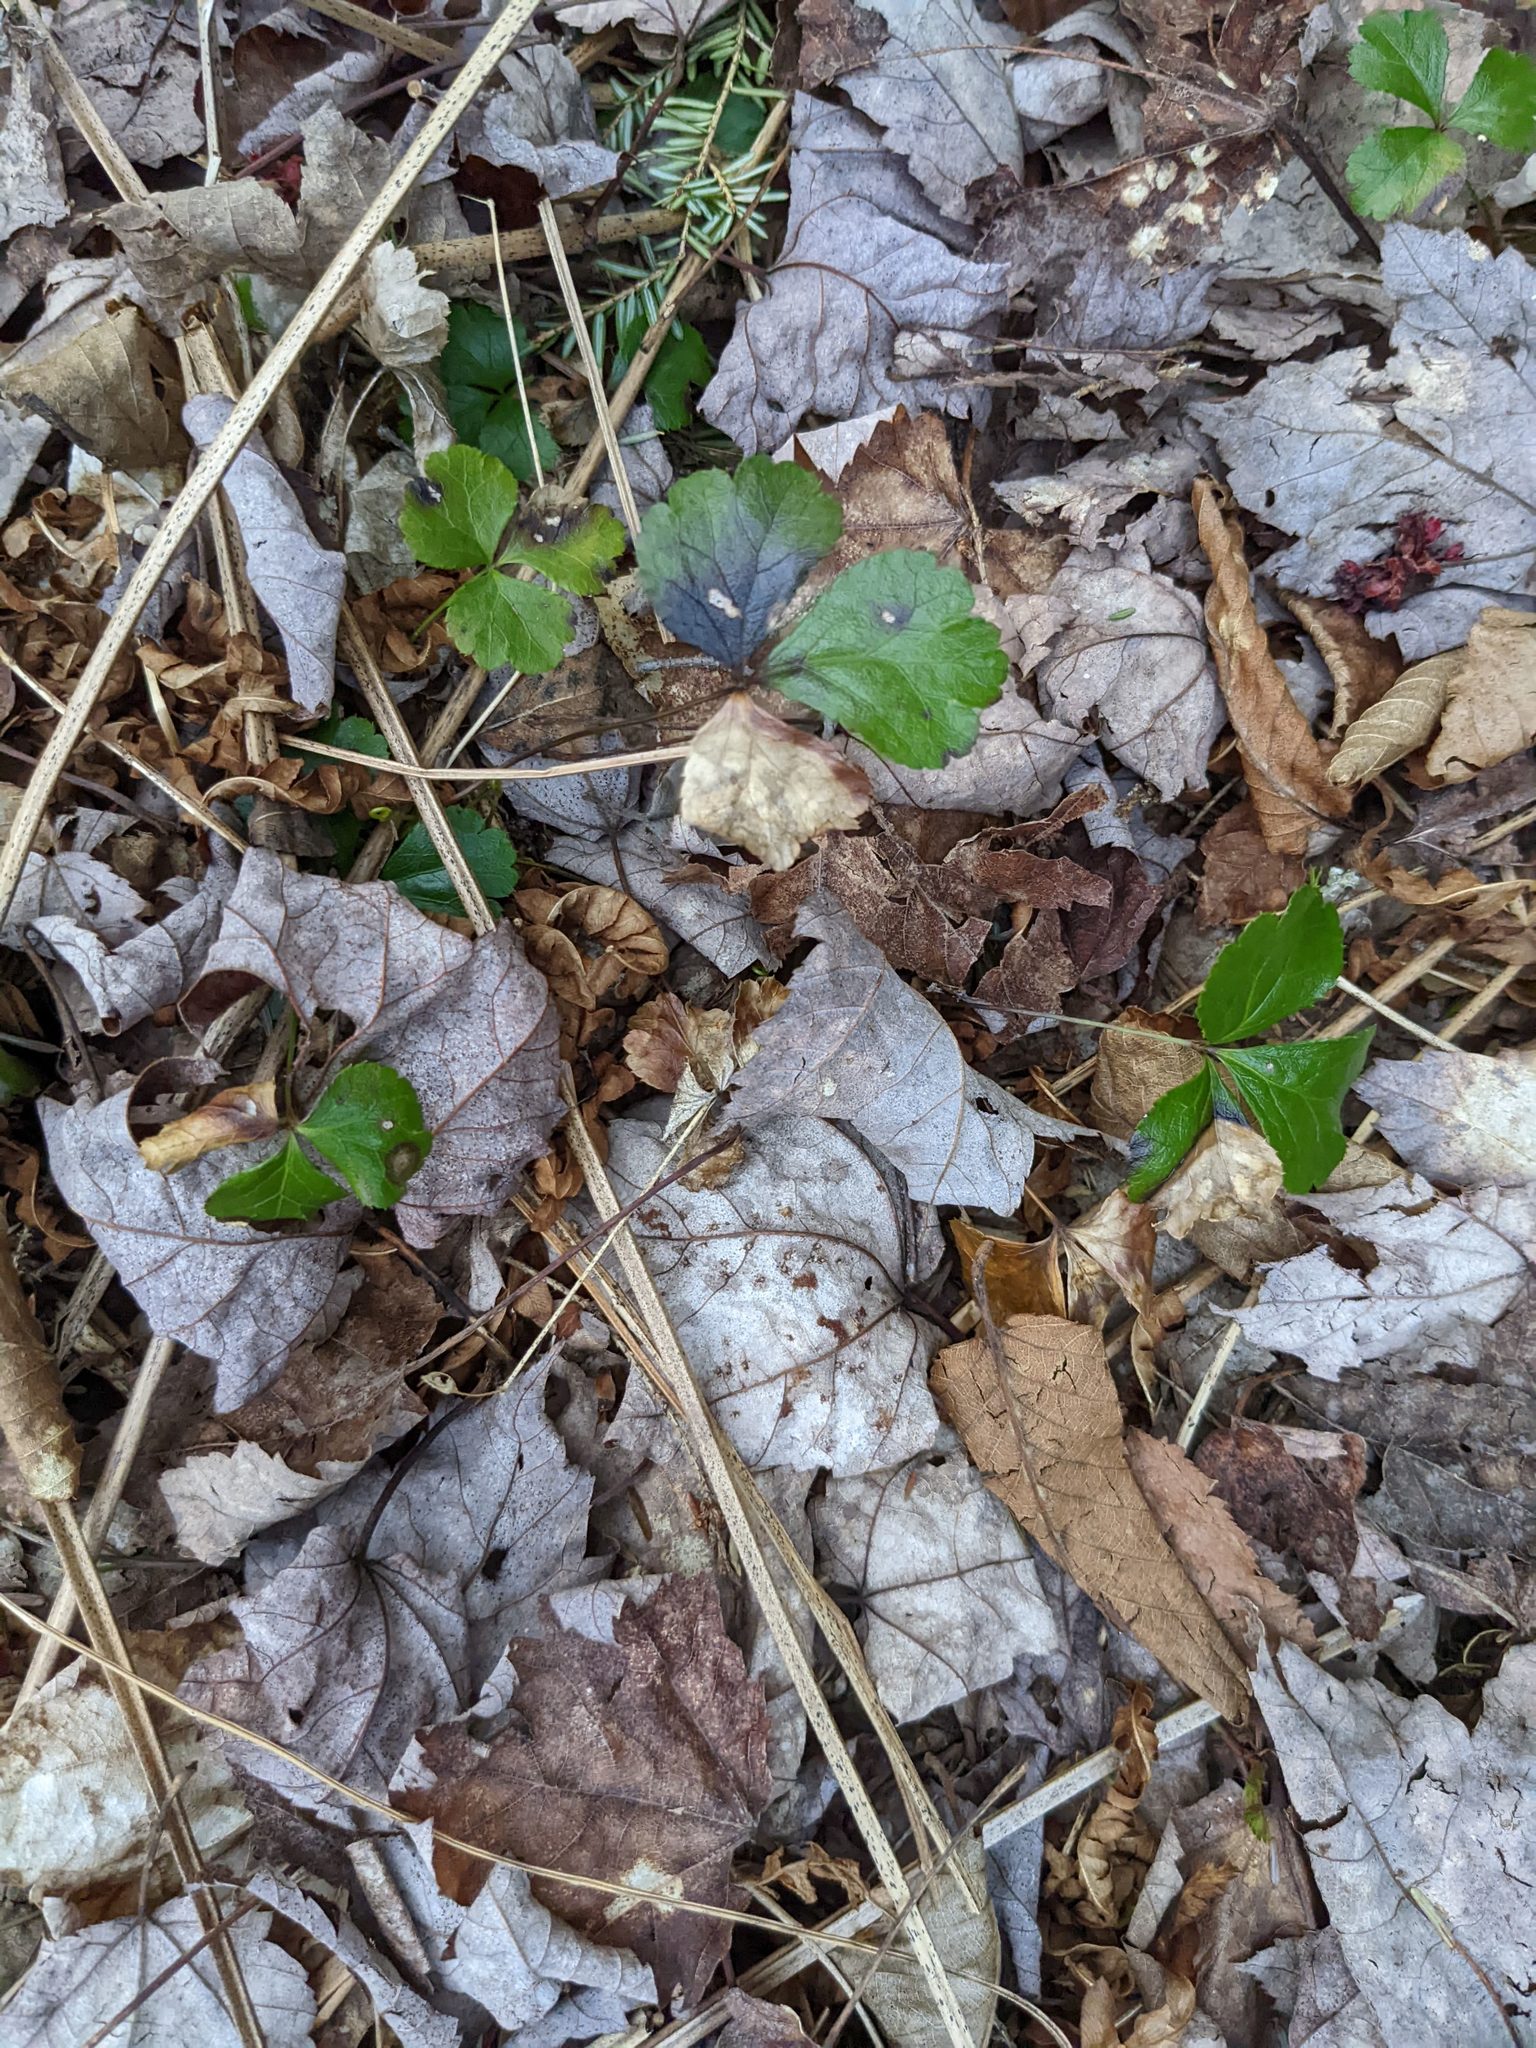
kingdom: Plantae
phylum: Tracheophyta
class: Magnoliopsida
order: Ranunculales
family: Ranunculaceae
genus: Coptis
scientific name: Coptis trifolia
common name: Canker-root
